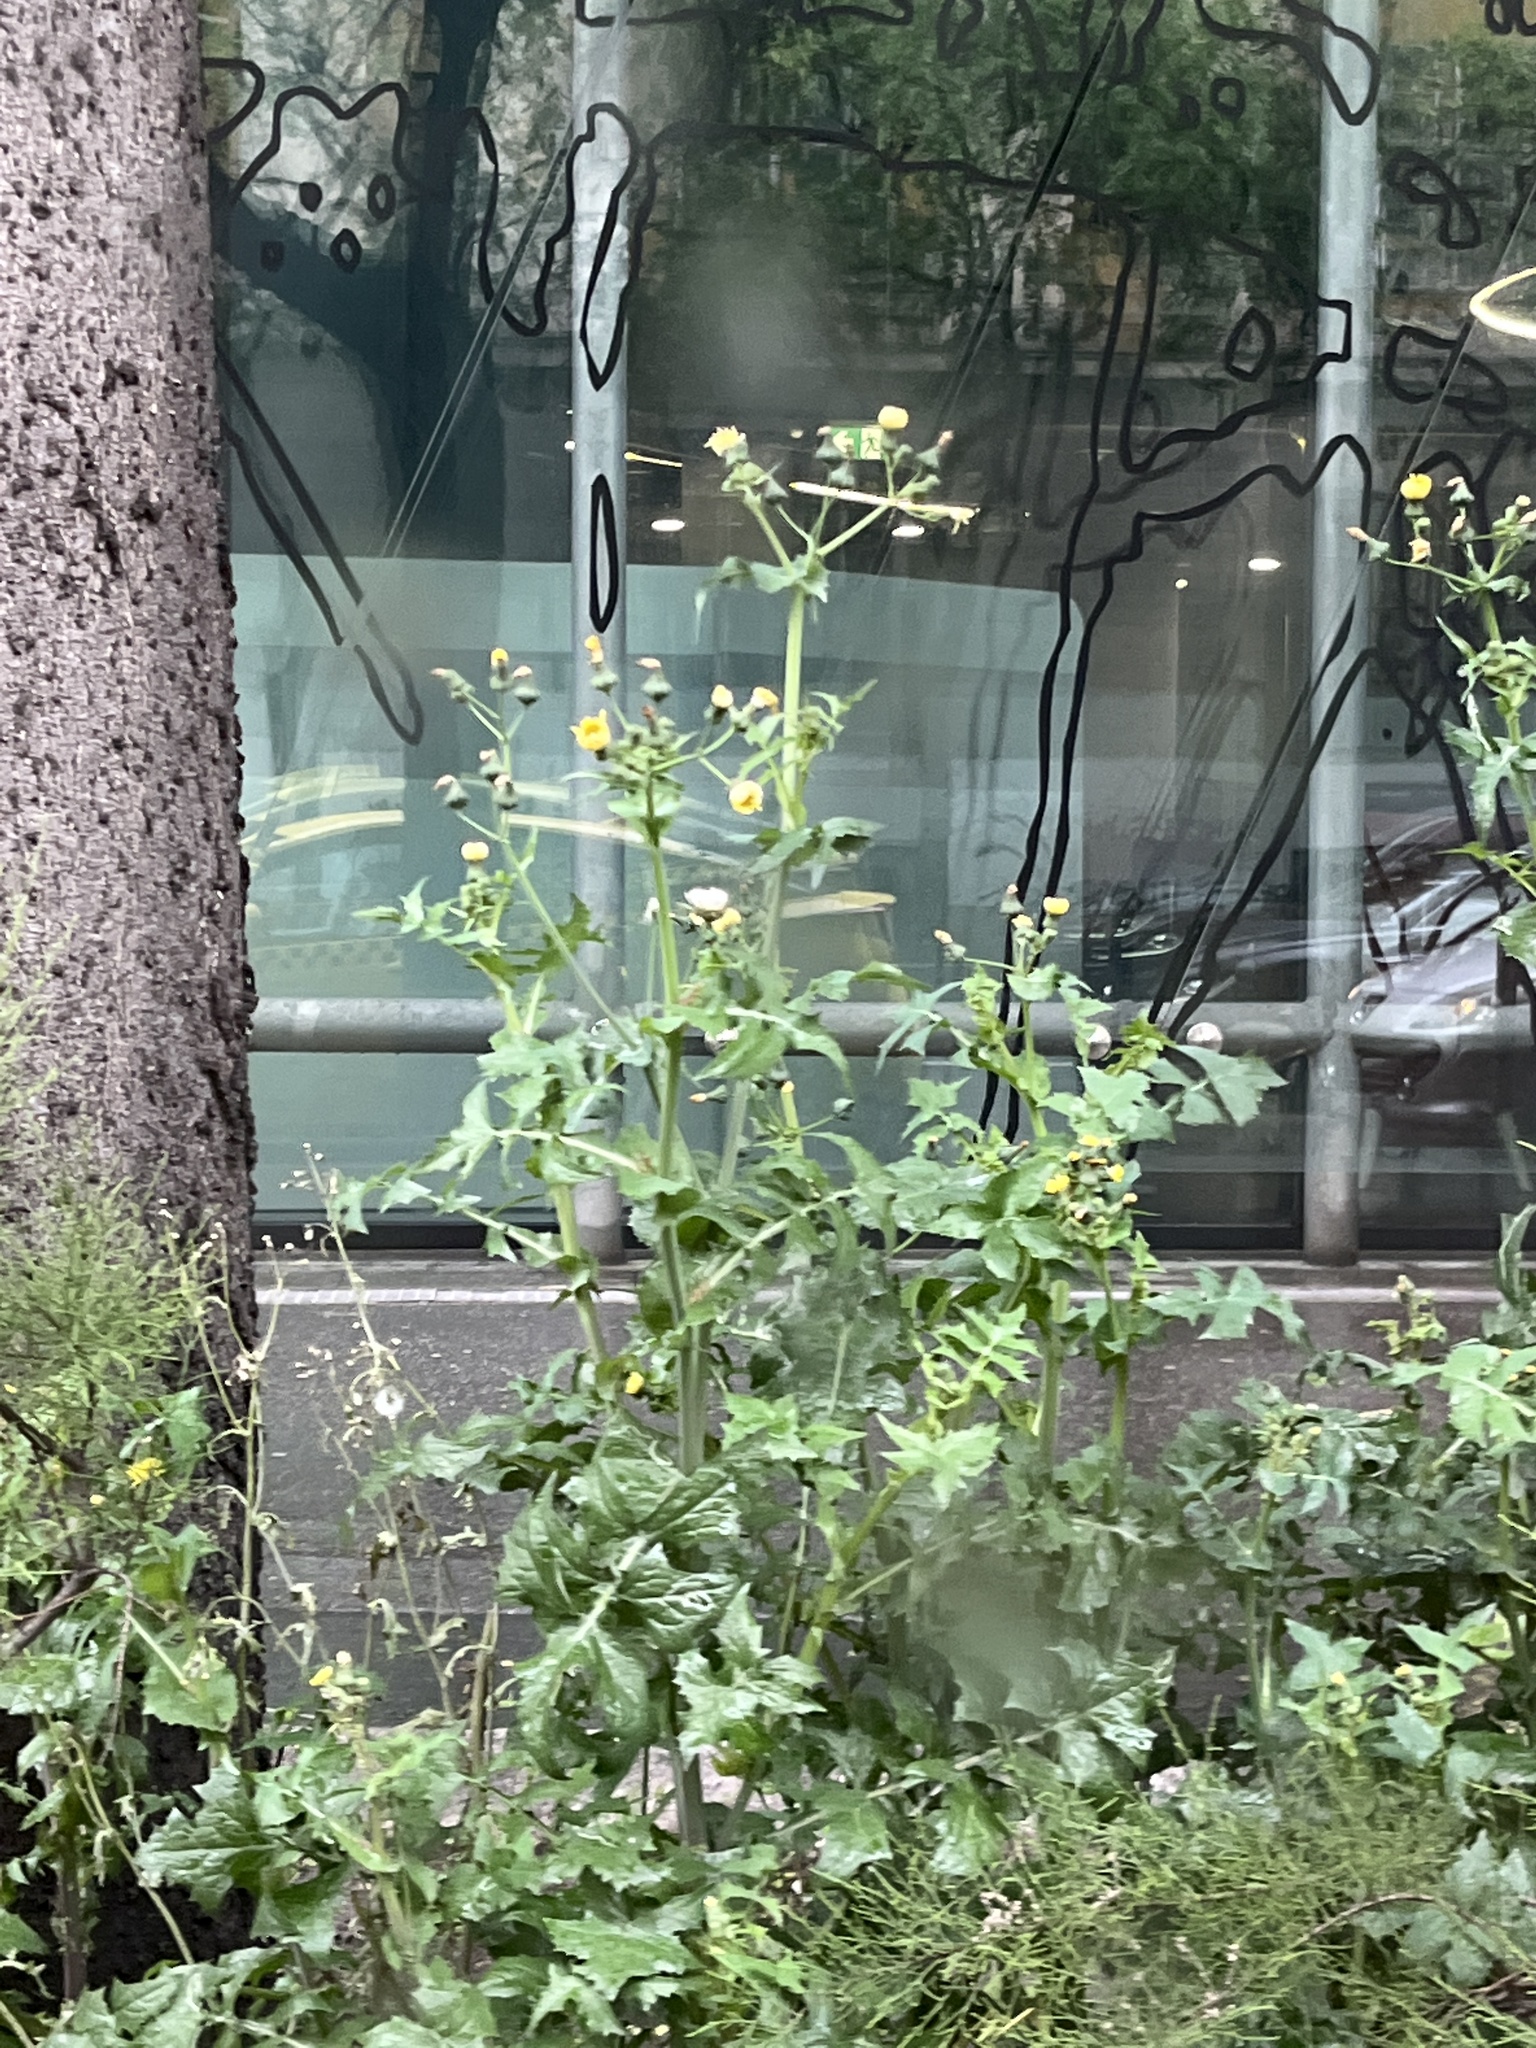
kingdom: Plantae
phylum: Tracheophyta
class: Magnoliopsida
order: Asterales
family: Asteraceae
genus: Sonchus
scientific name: Sonchus oleraceus
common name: Common sowthistle
